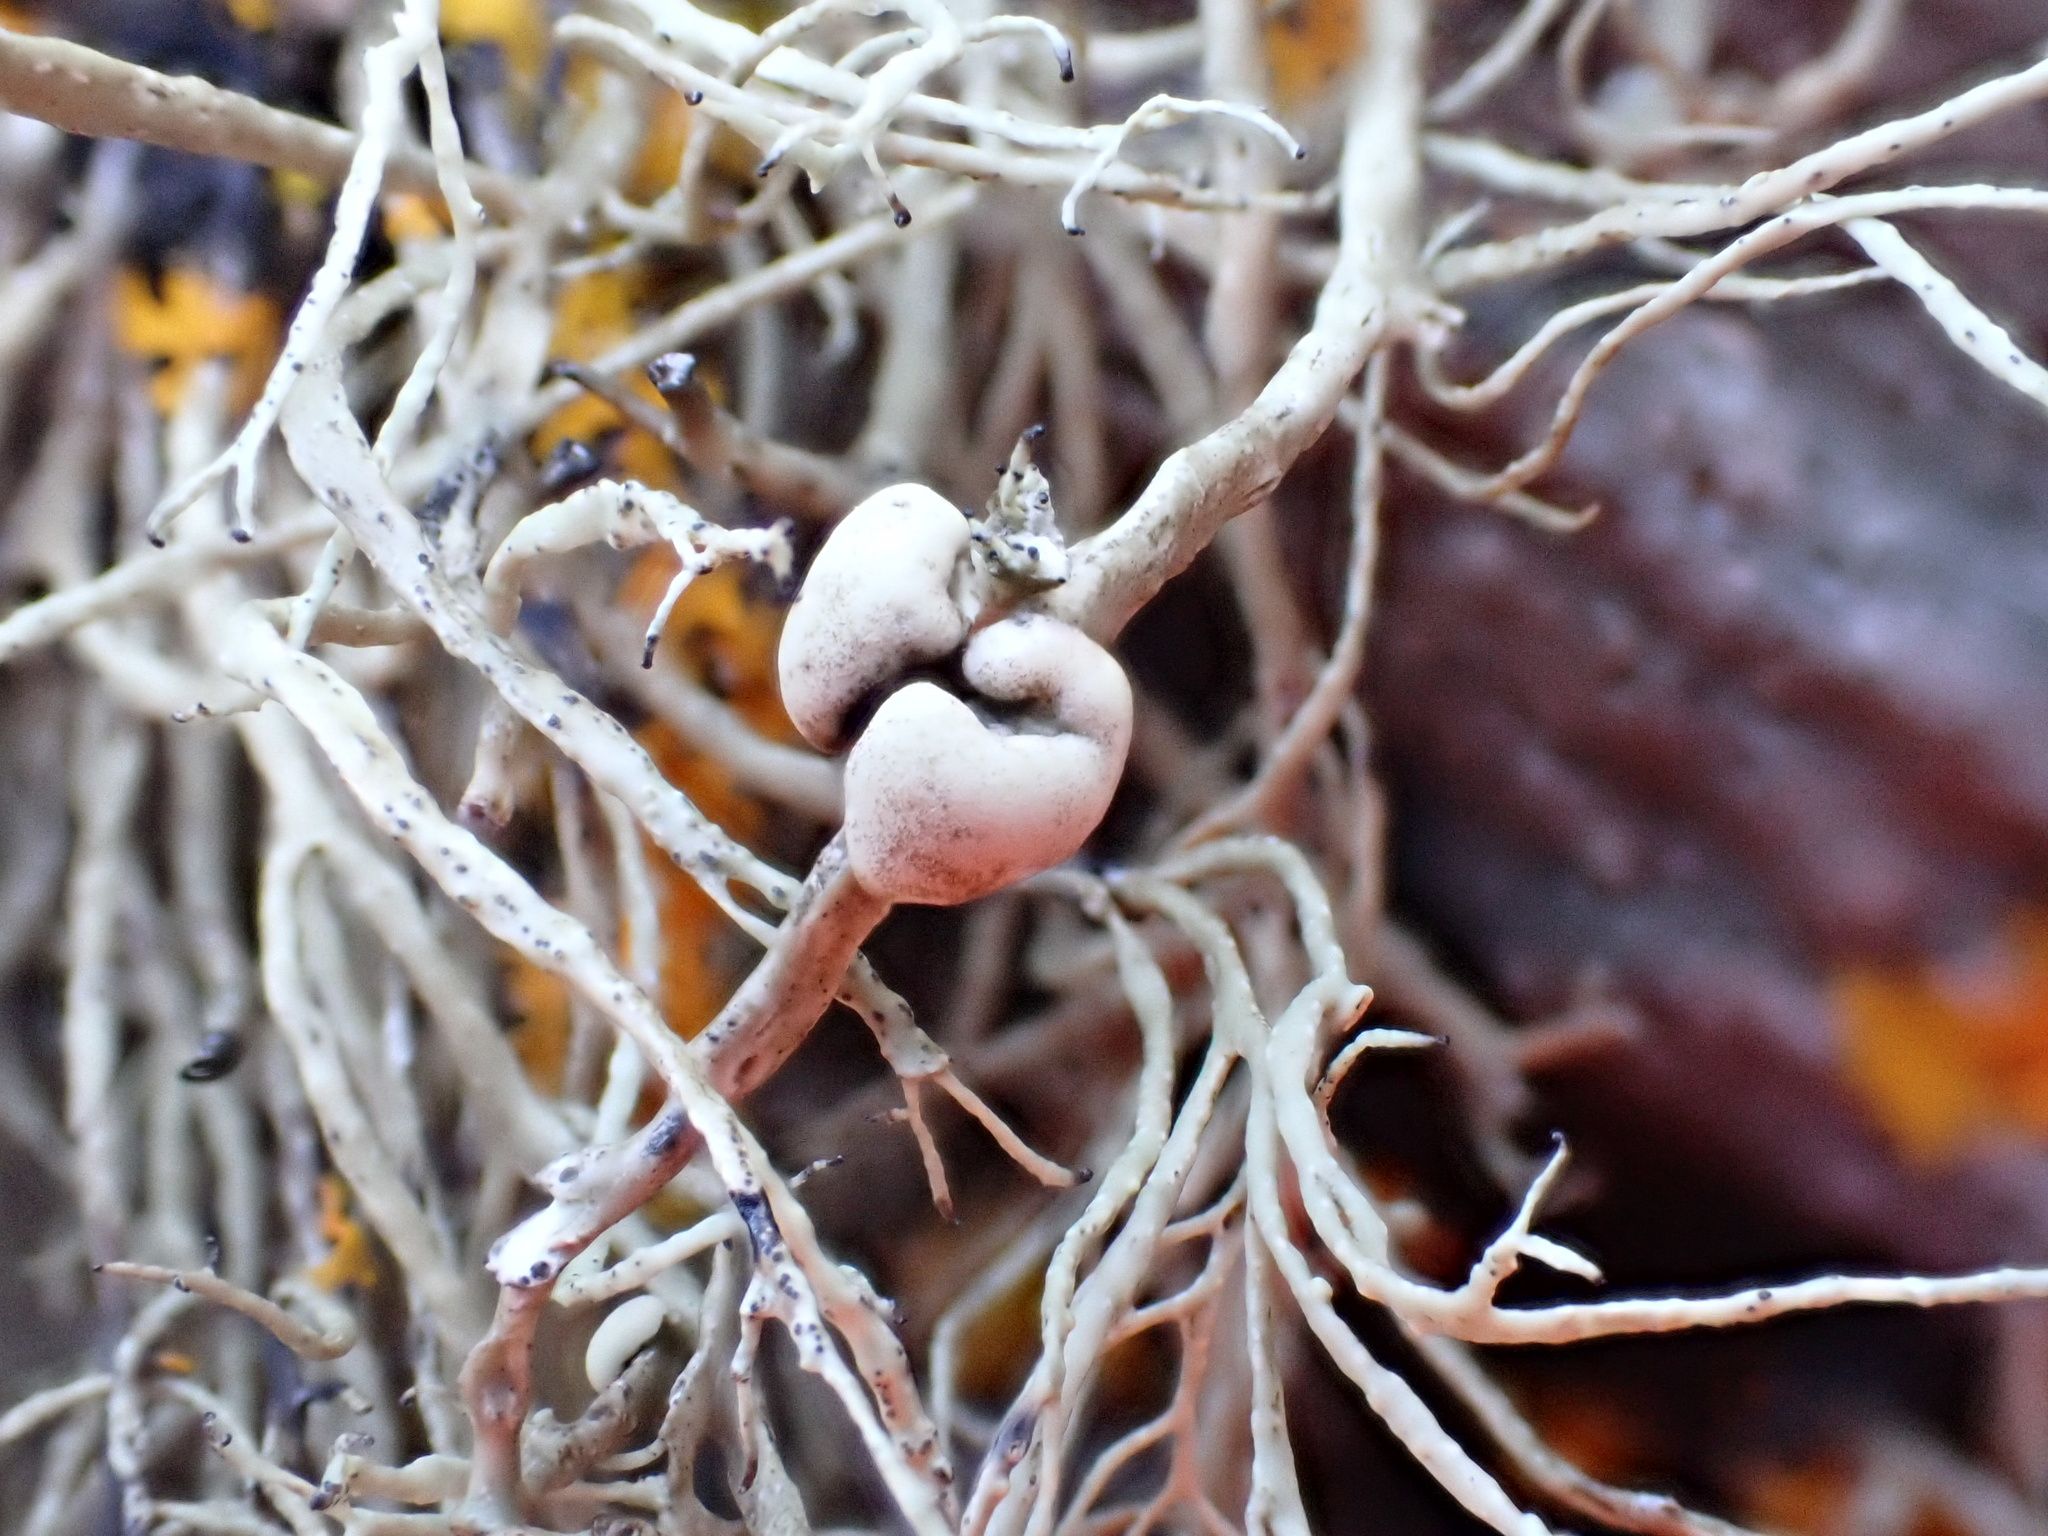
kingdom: Fungi
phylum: Ascomycota
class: Lecanoromycetes
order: Lecanorales
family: Ramalinaceae
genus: Ramalina
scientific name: Ramalina cuspidata
